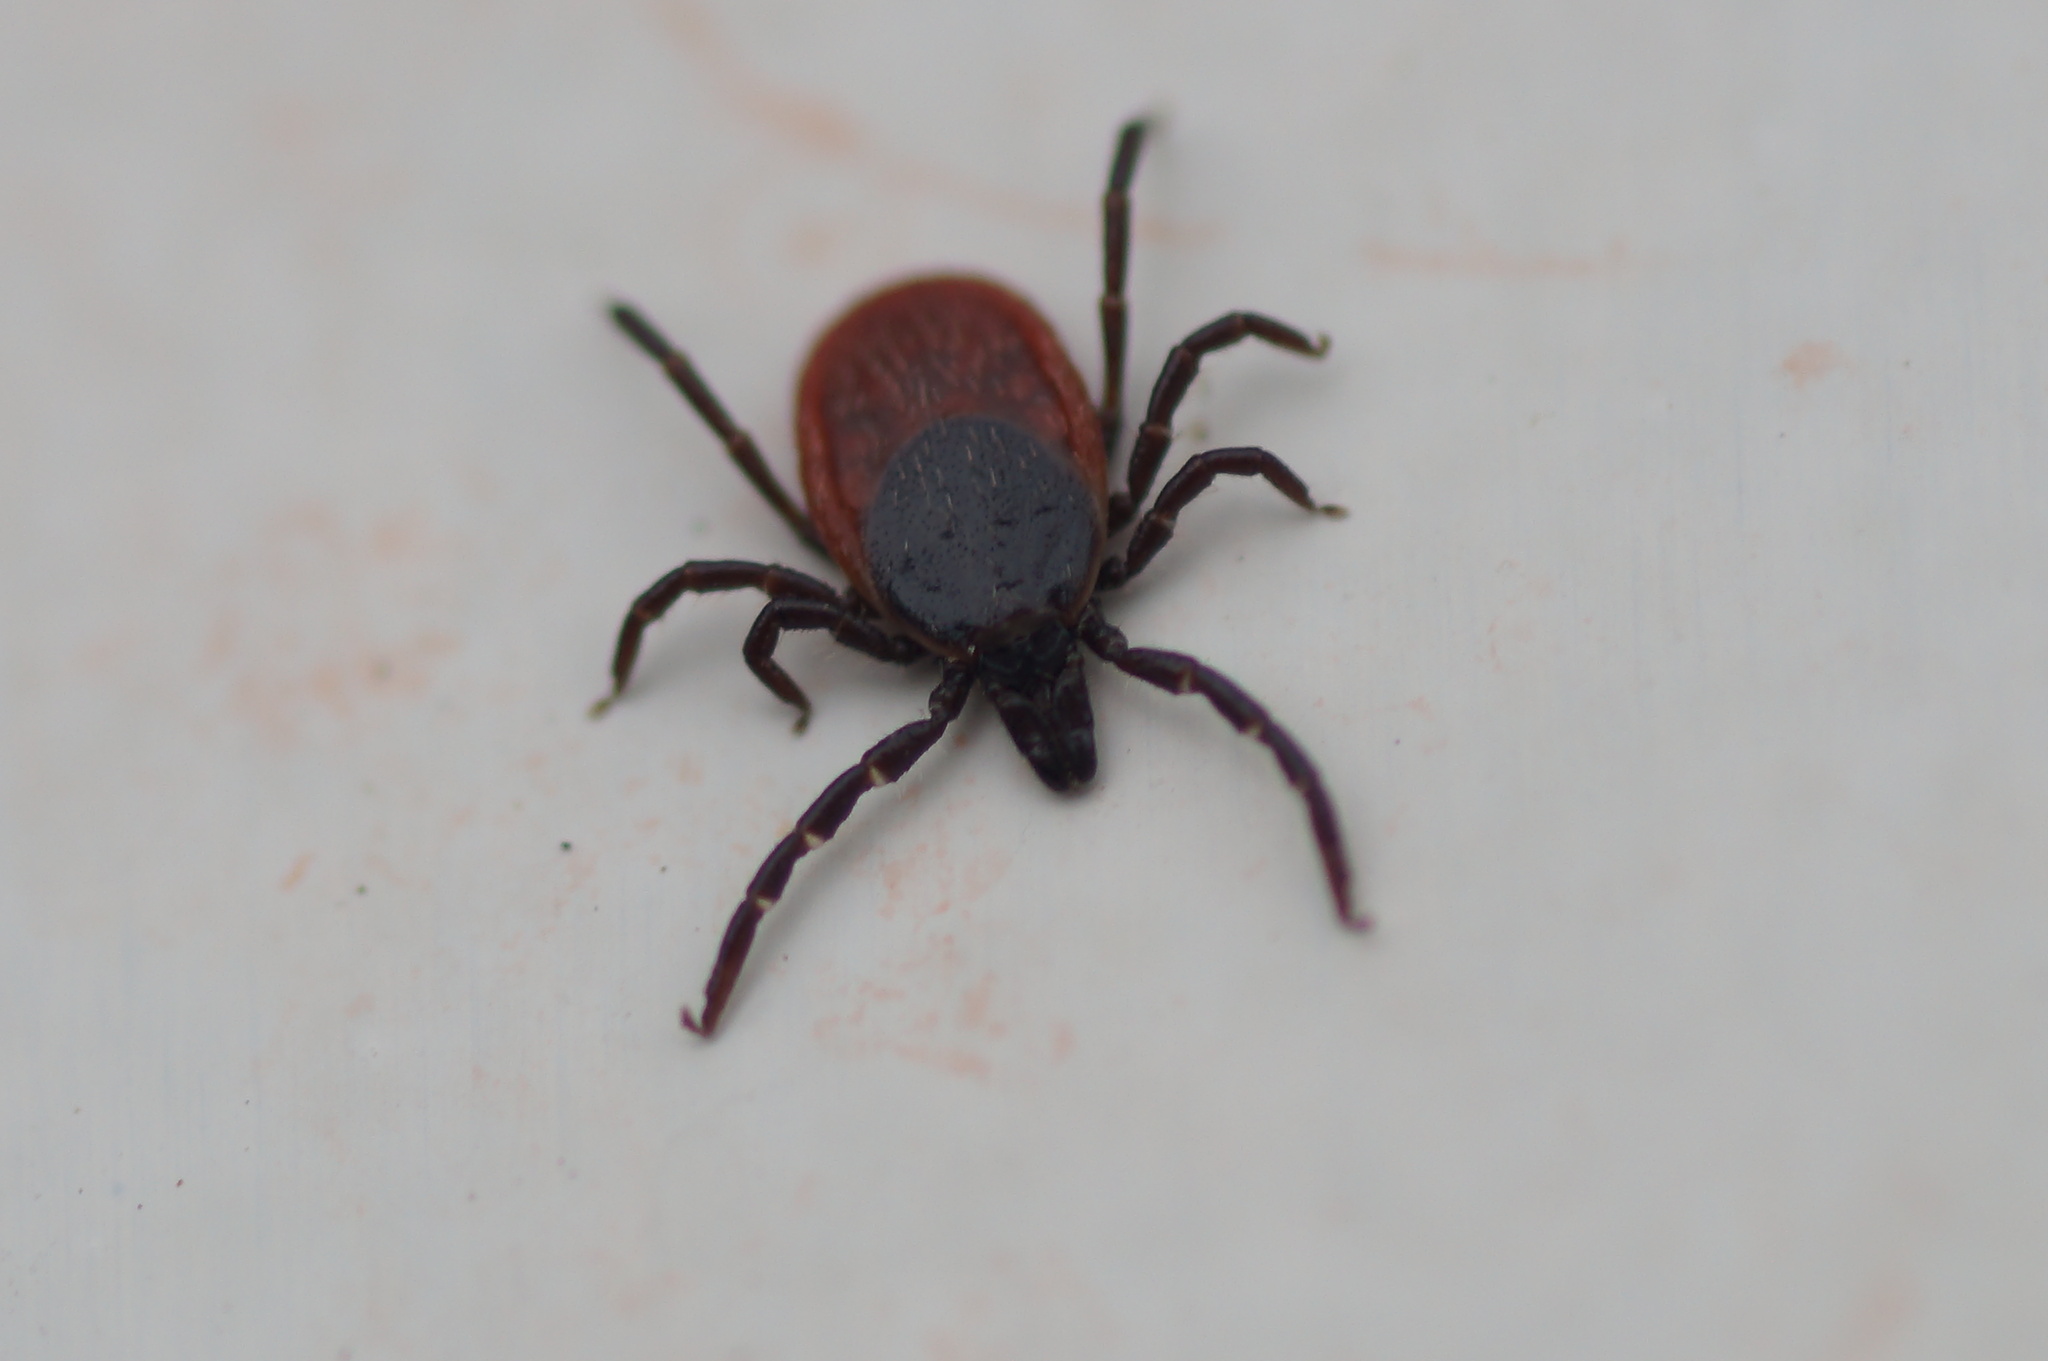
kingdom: Animalia
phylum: Arthropoda
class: Arachnida
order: Ixodida
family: Ixodidae
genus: Ixodes
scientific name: Ixodes ricinus
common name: Castor bean tick
